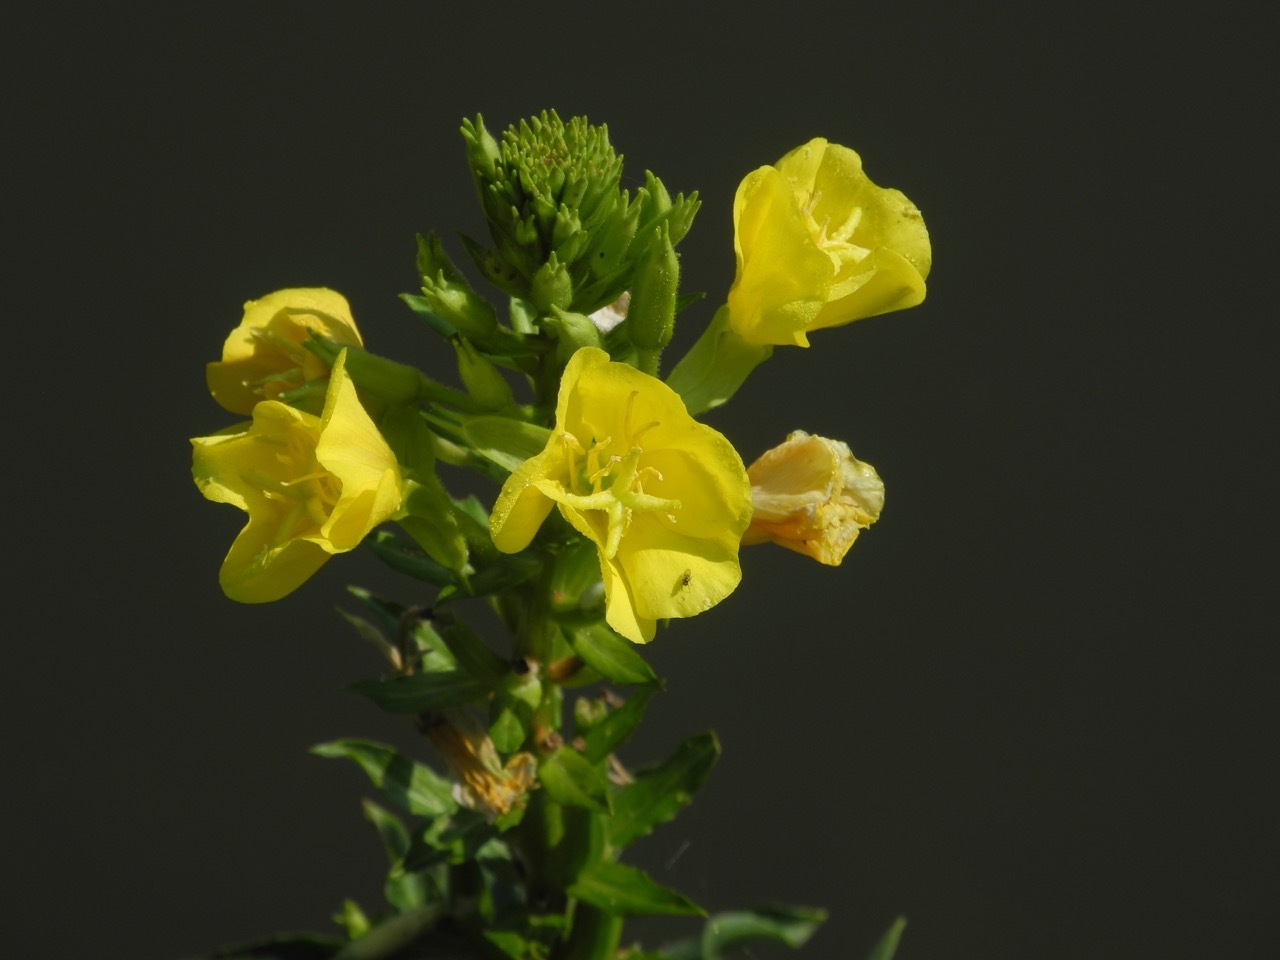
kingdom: Plantae
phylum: Tracheophyta
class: Magnoliopsida
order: Myrtales
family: Onagraceae
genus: Oenothera
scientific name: Oenothera biennis
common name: Common evening-primrose
